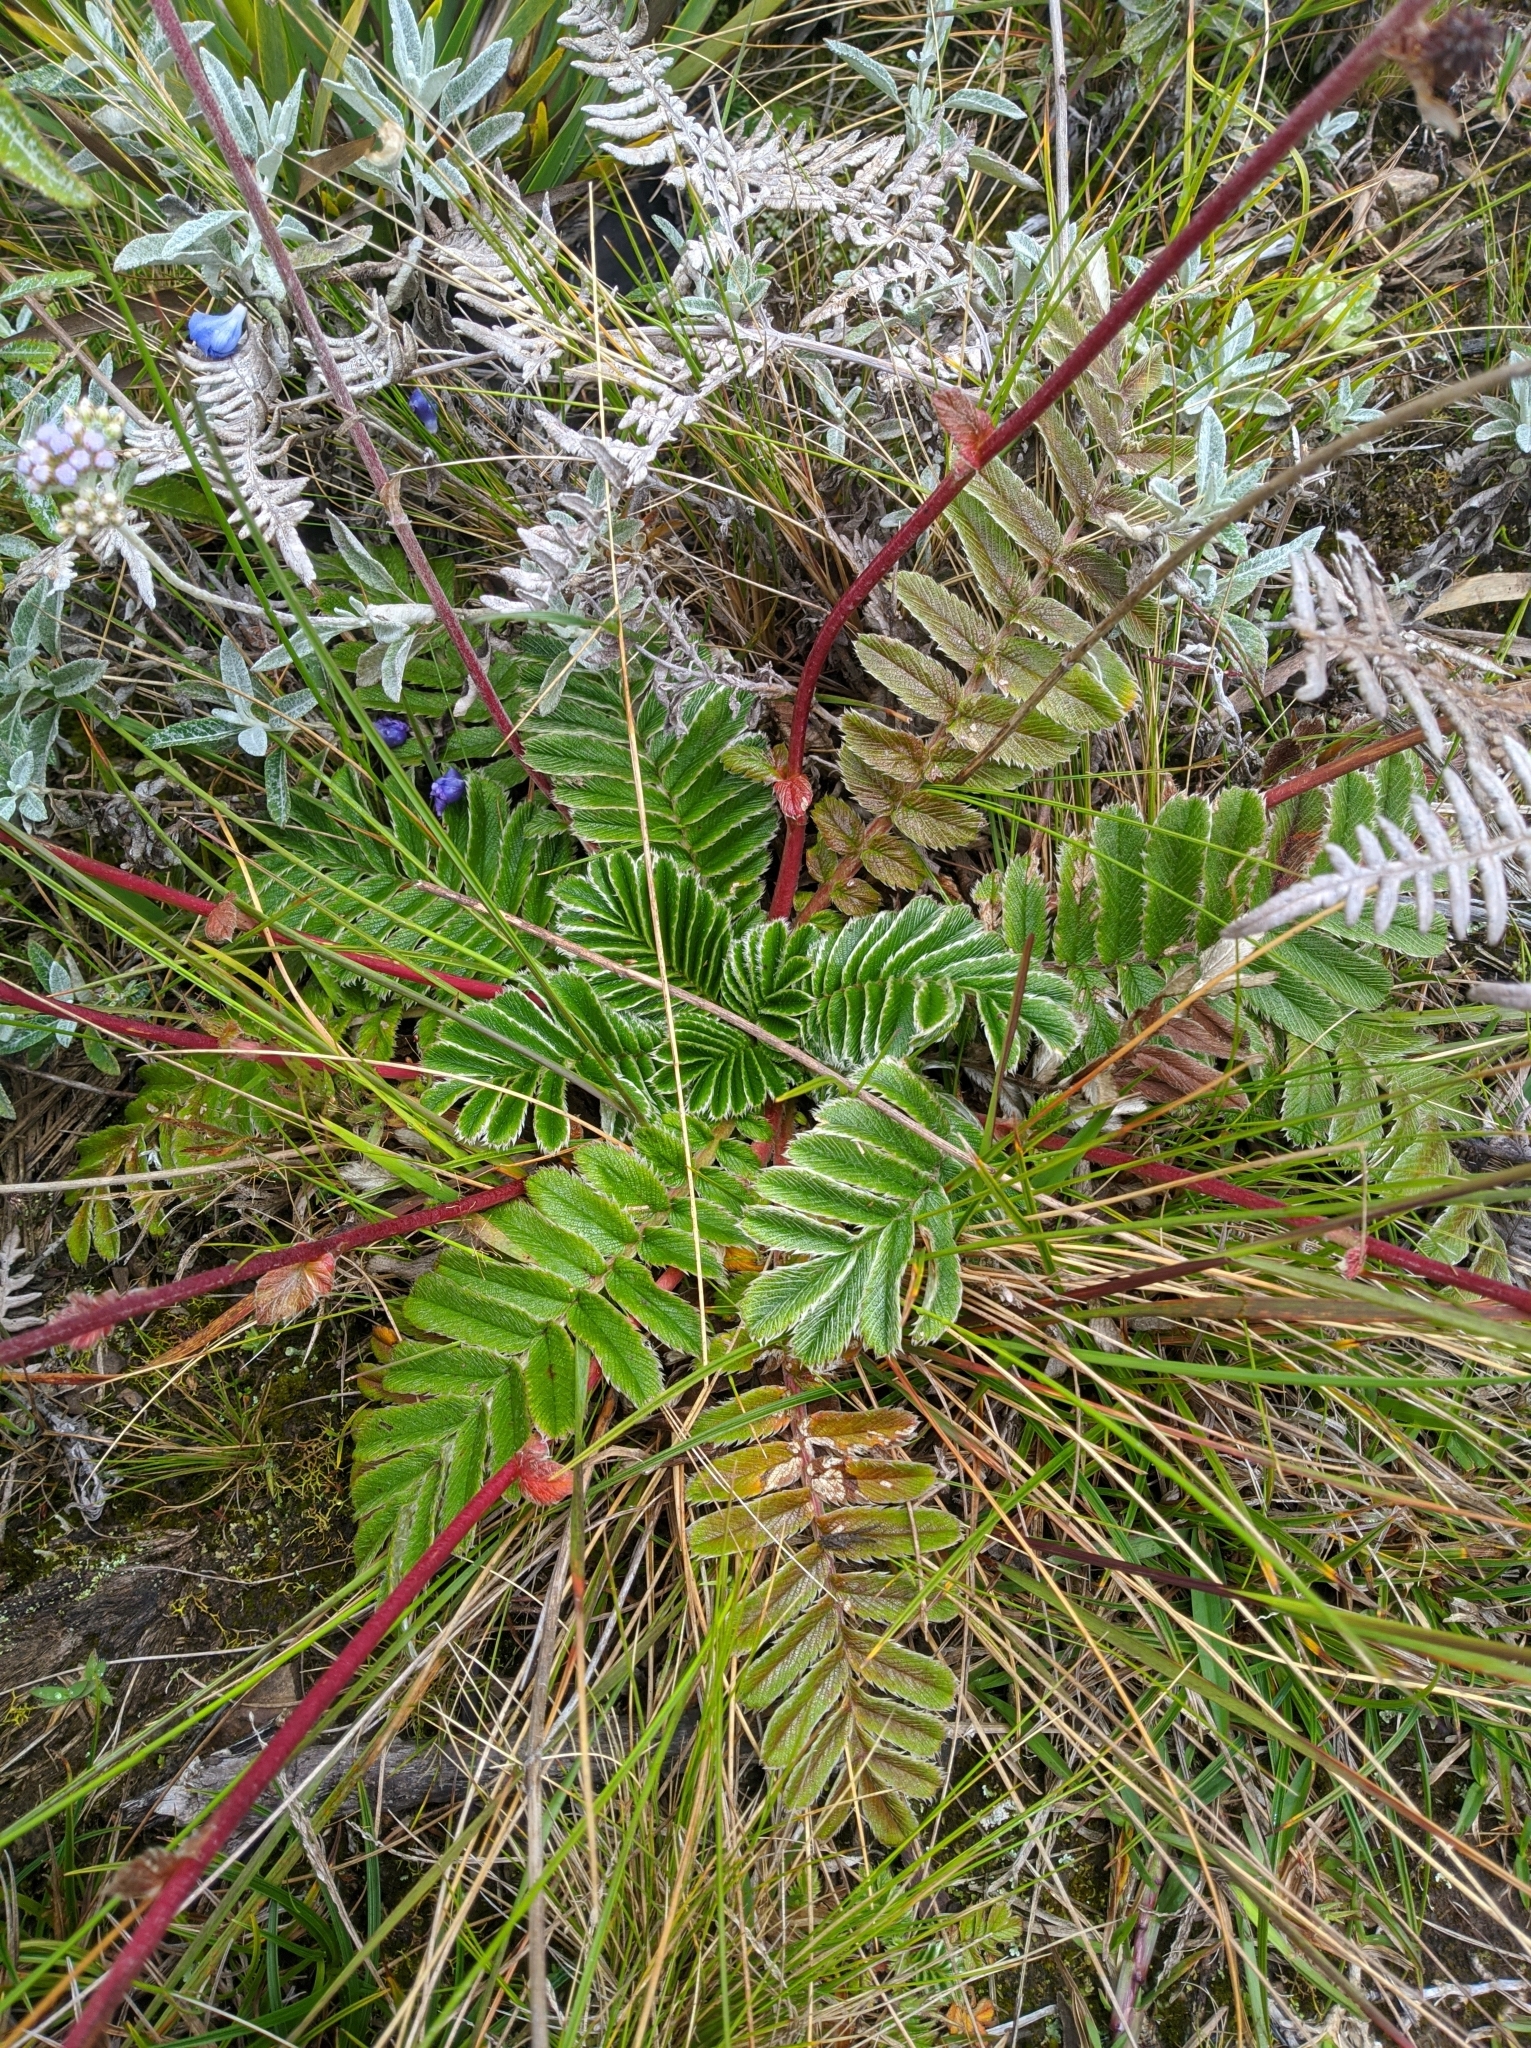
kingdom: Plantae
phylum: Tracheophyta
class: Magnoliopsida
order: Rosales
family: Rosaceae
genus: Acaena
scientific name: Acaena cylindristachya
